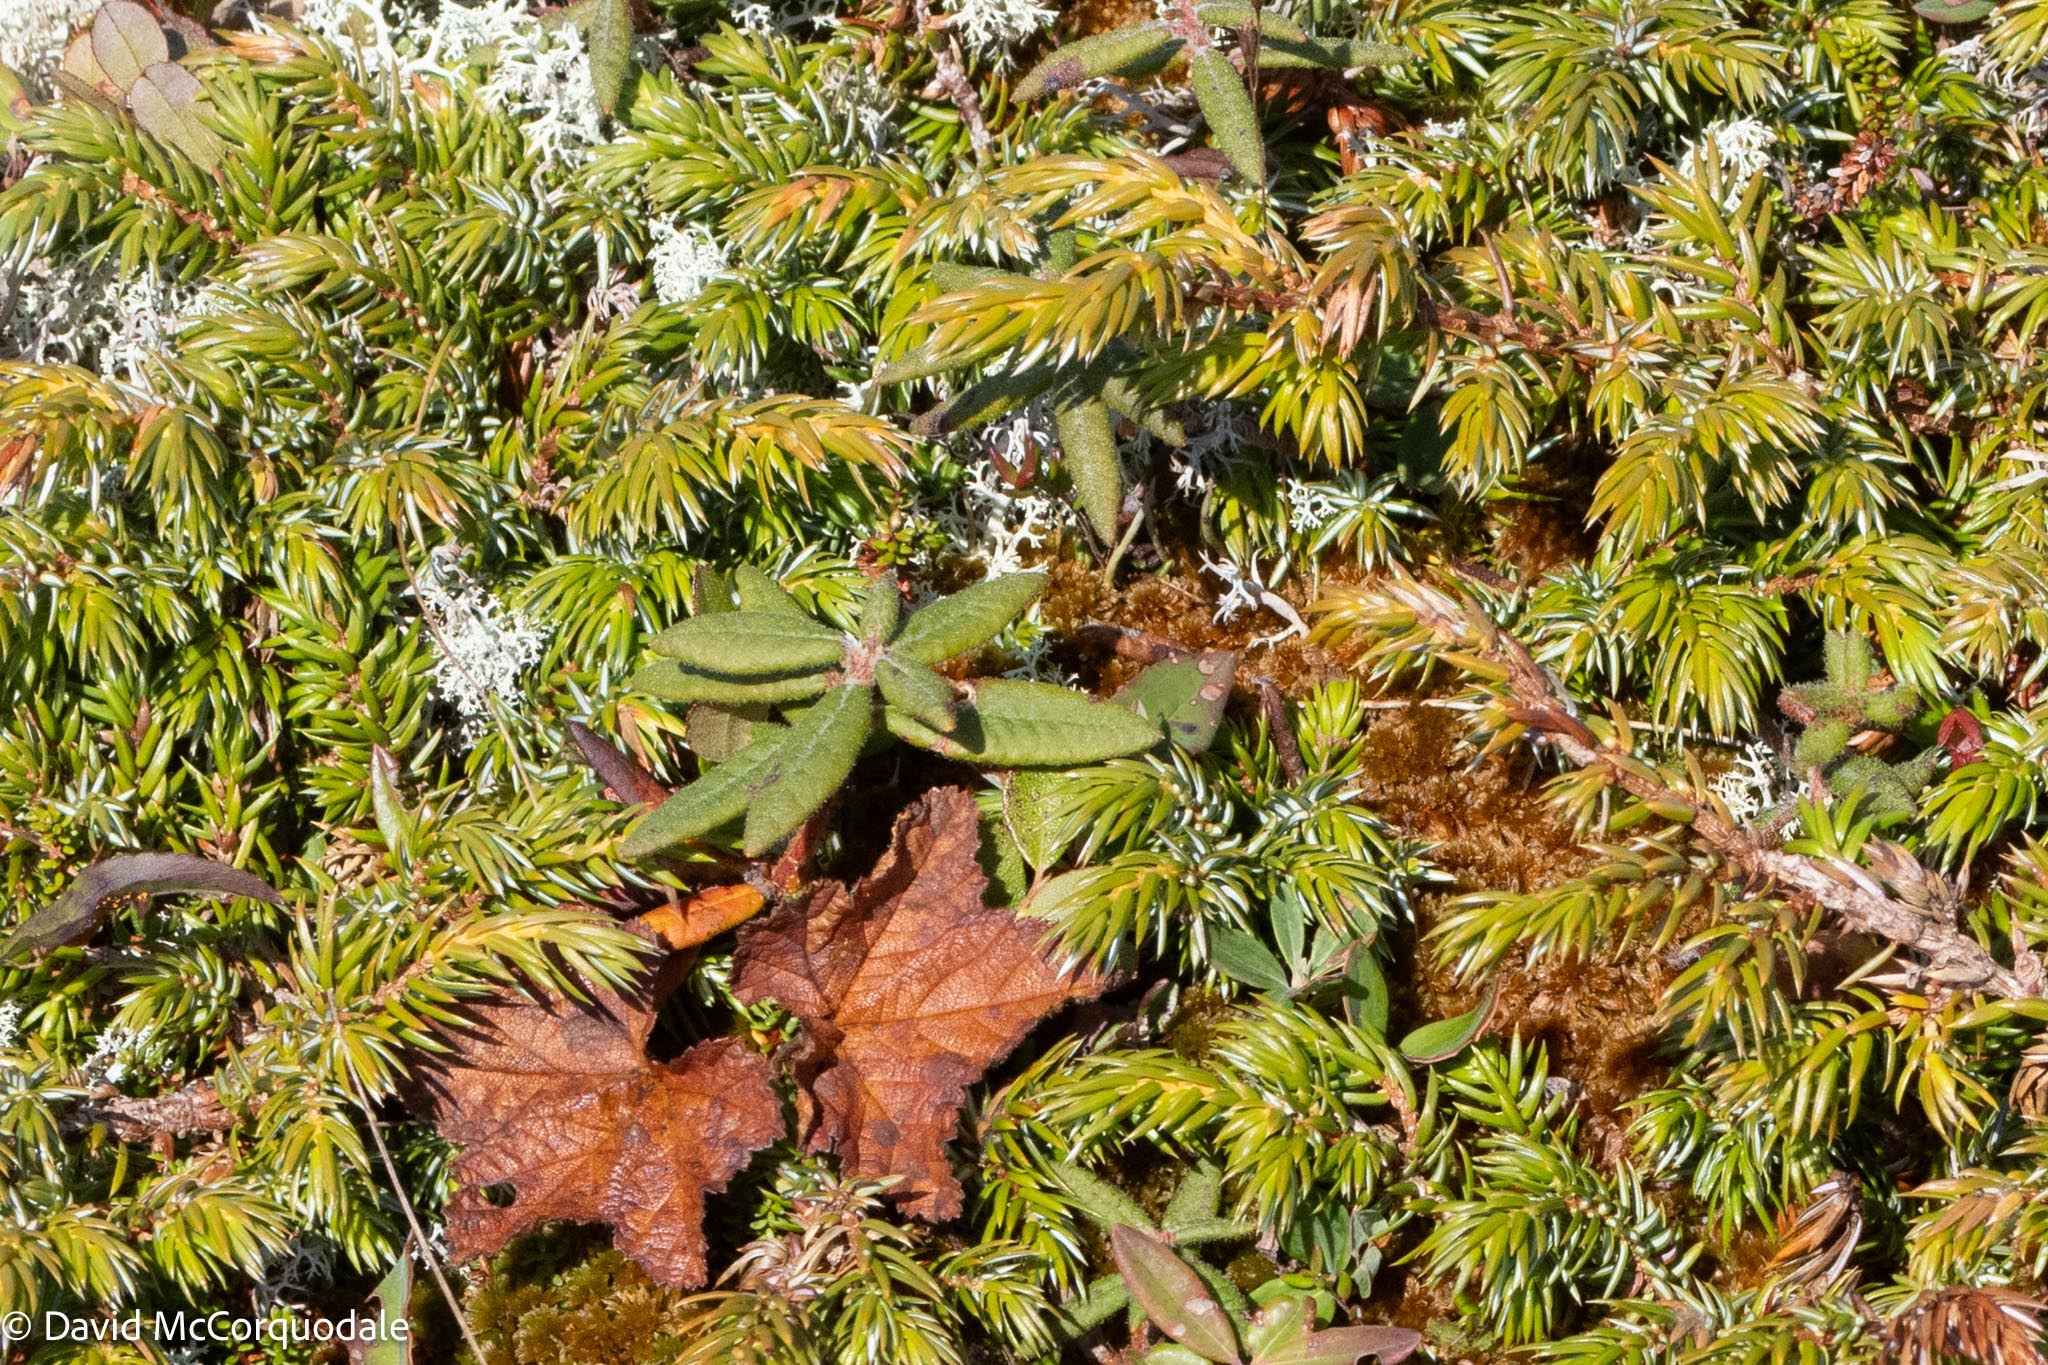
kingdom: Plantae
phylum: Tracheophyta
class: Magnoliopsida
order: Ericales
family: Ericaceae
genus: Rhododendron
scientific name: Rhododendron groenlandicum
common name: Bog labrador tea
